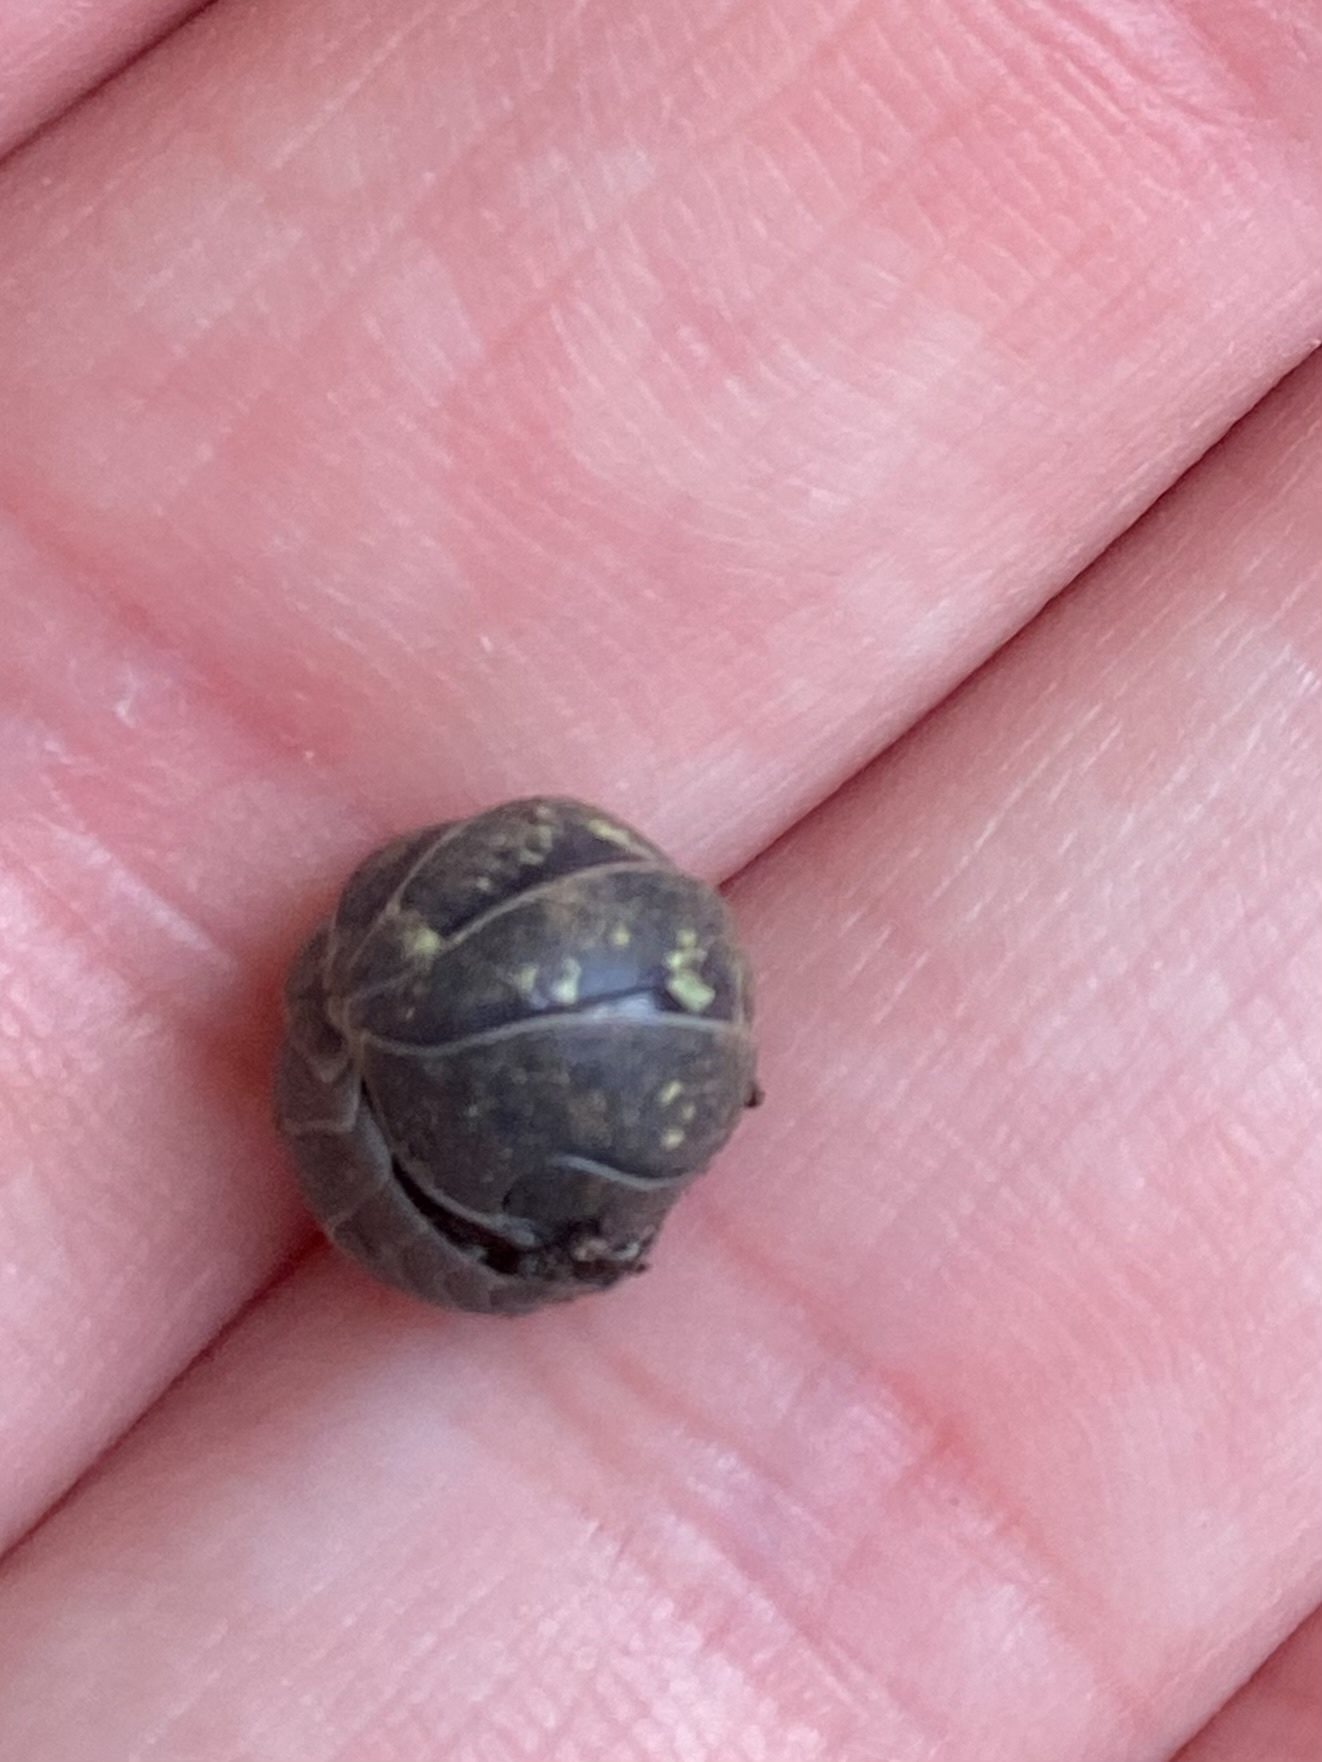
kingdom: Animalia
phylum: Arthropoda
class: Malacostraca
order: Isopoda
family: Armadillidiidae
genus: Armadillidium
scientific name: Armadillidium vulgare
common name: Common pill woodlouse
